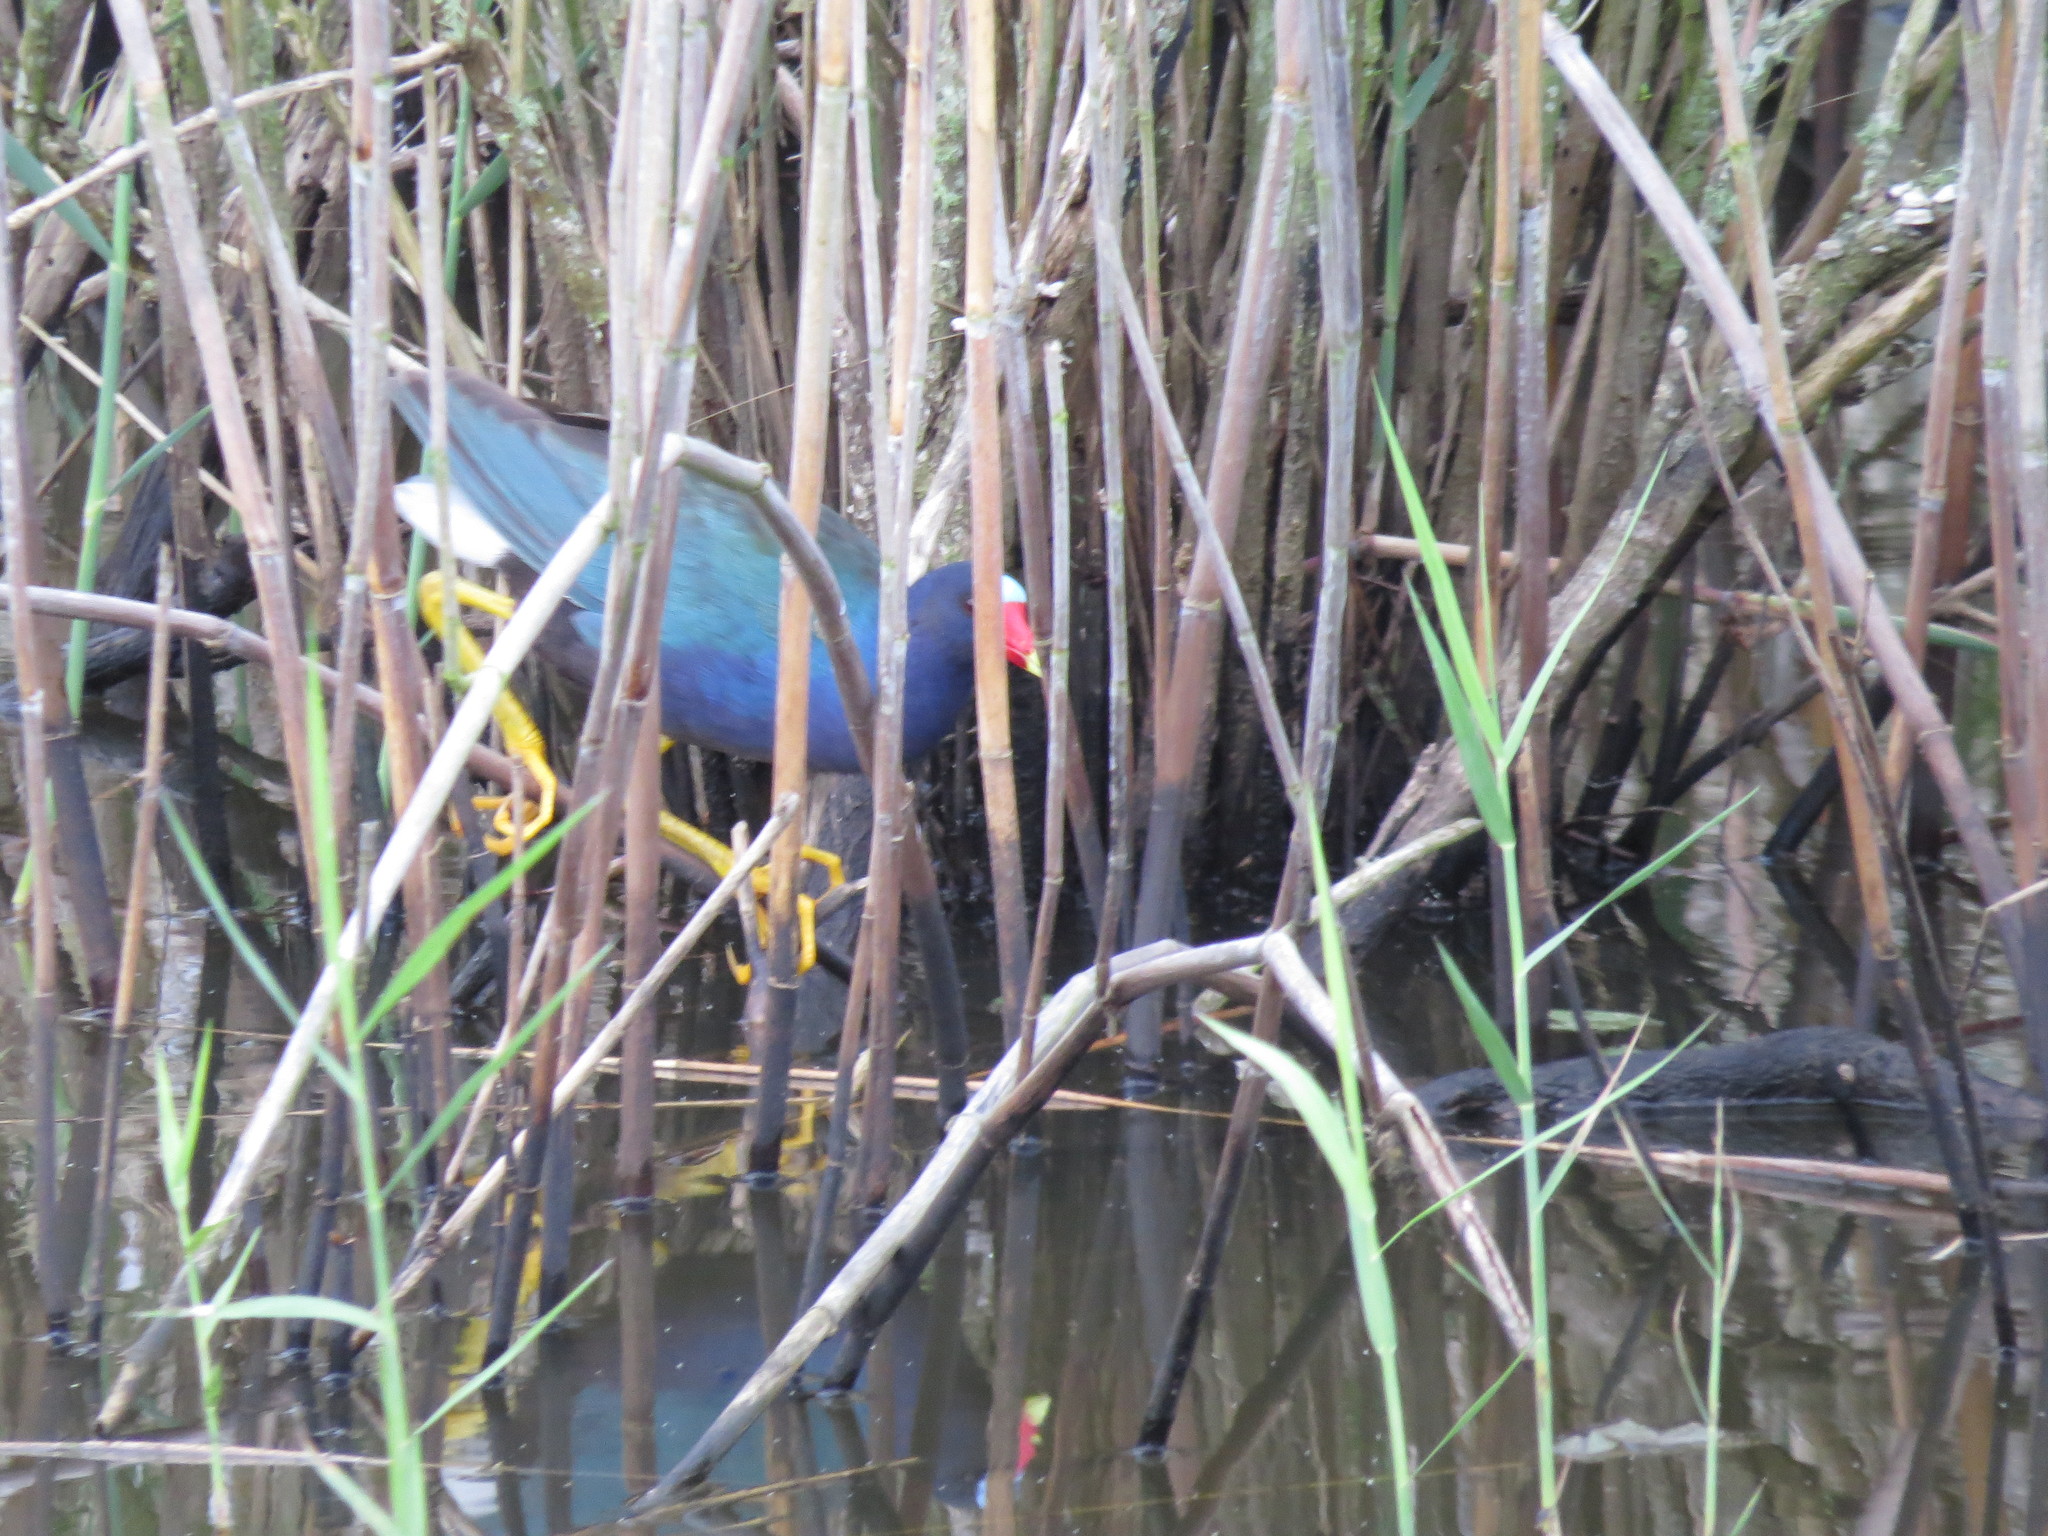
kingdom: Animalia
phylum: Chordata
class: Aves
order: Gruiformes
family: Rallidae
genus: Porphyrio
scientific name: Porphyrio martinica
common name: Purple gallinule
